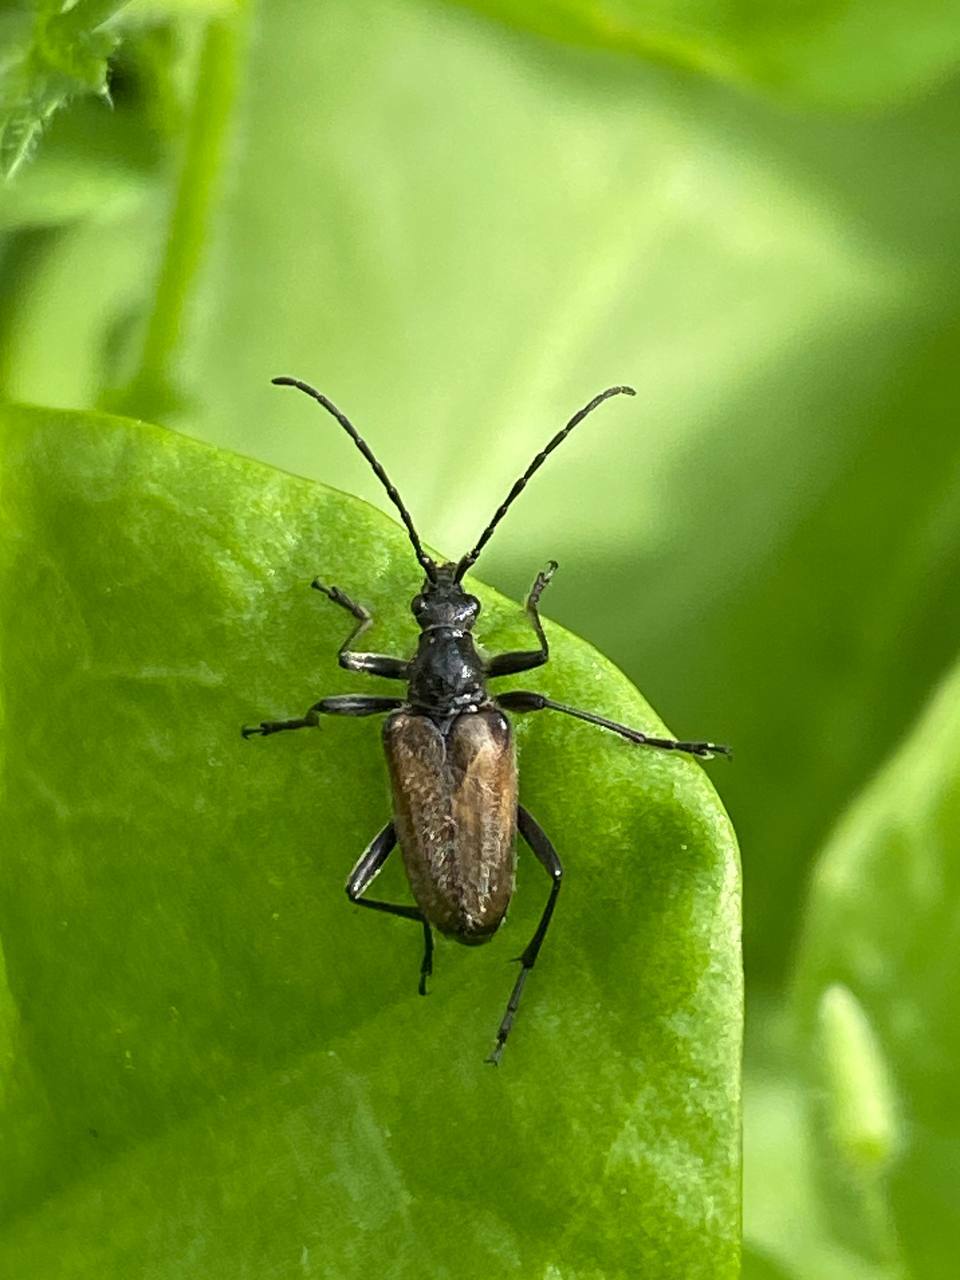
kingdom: Animalia
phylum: Arthropoda
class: Insecta
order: Coleoptera
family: Cerambycidae
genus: Gnathacmaeops
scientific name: Gnathacmaeops pratensis
